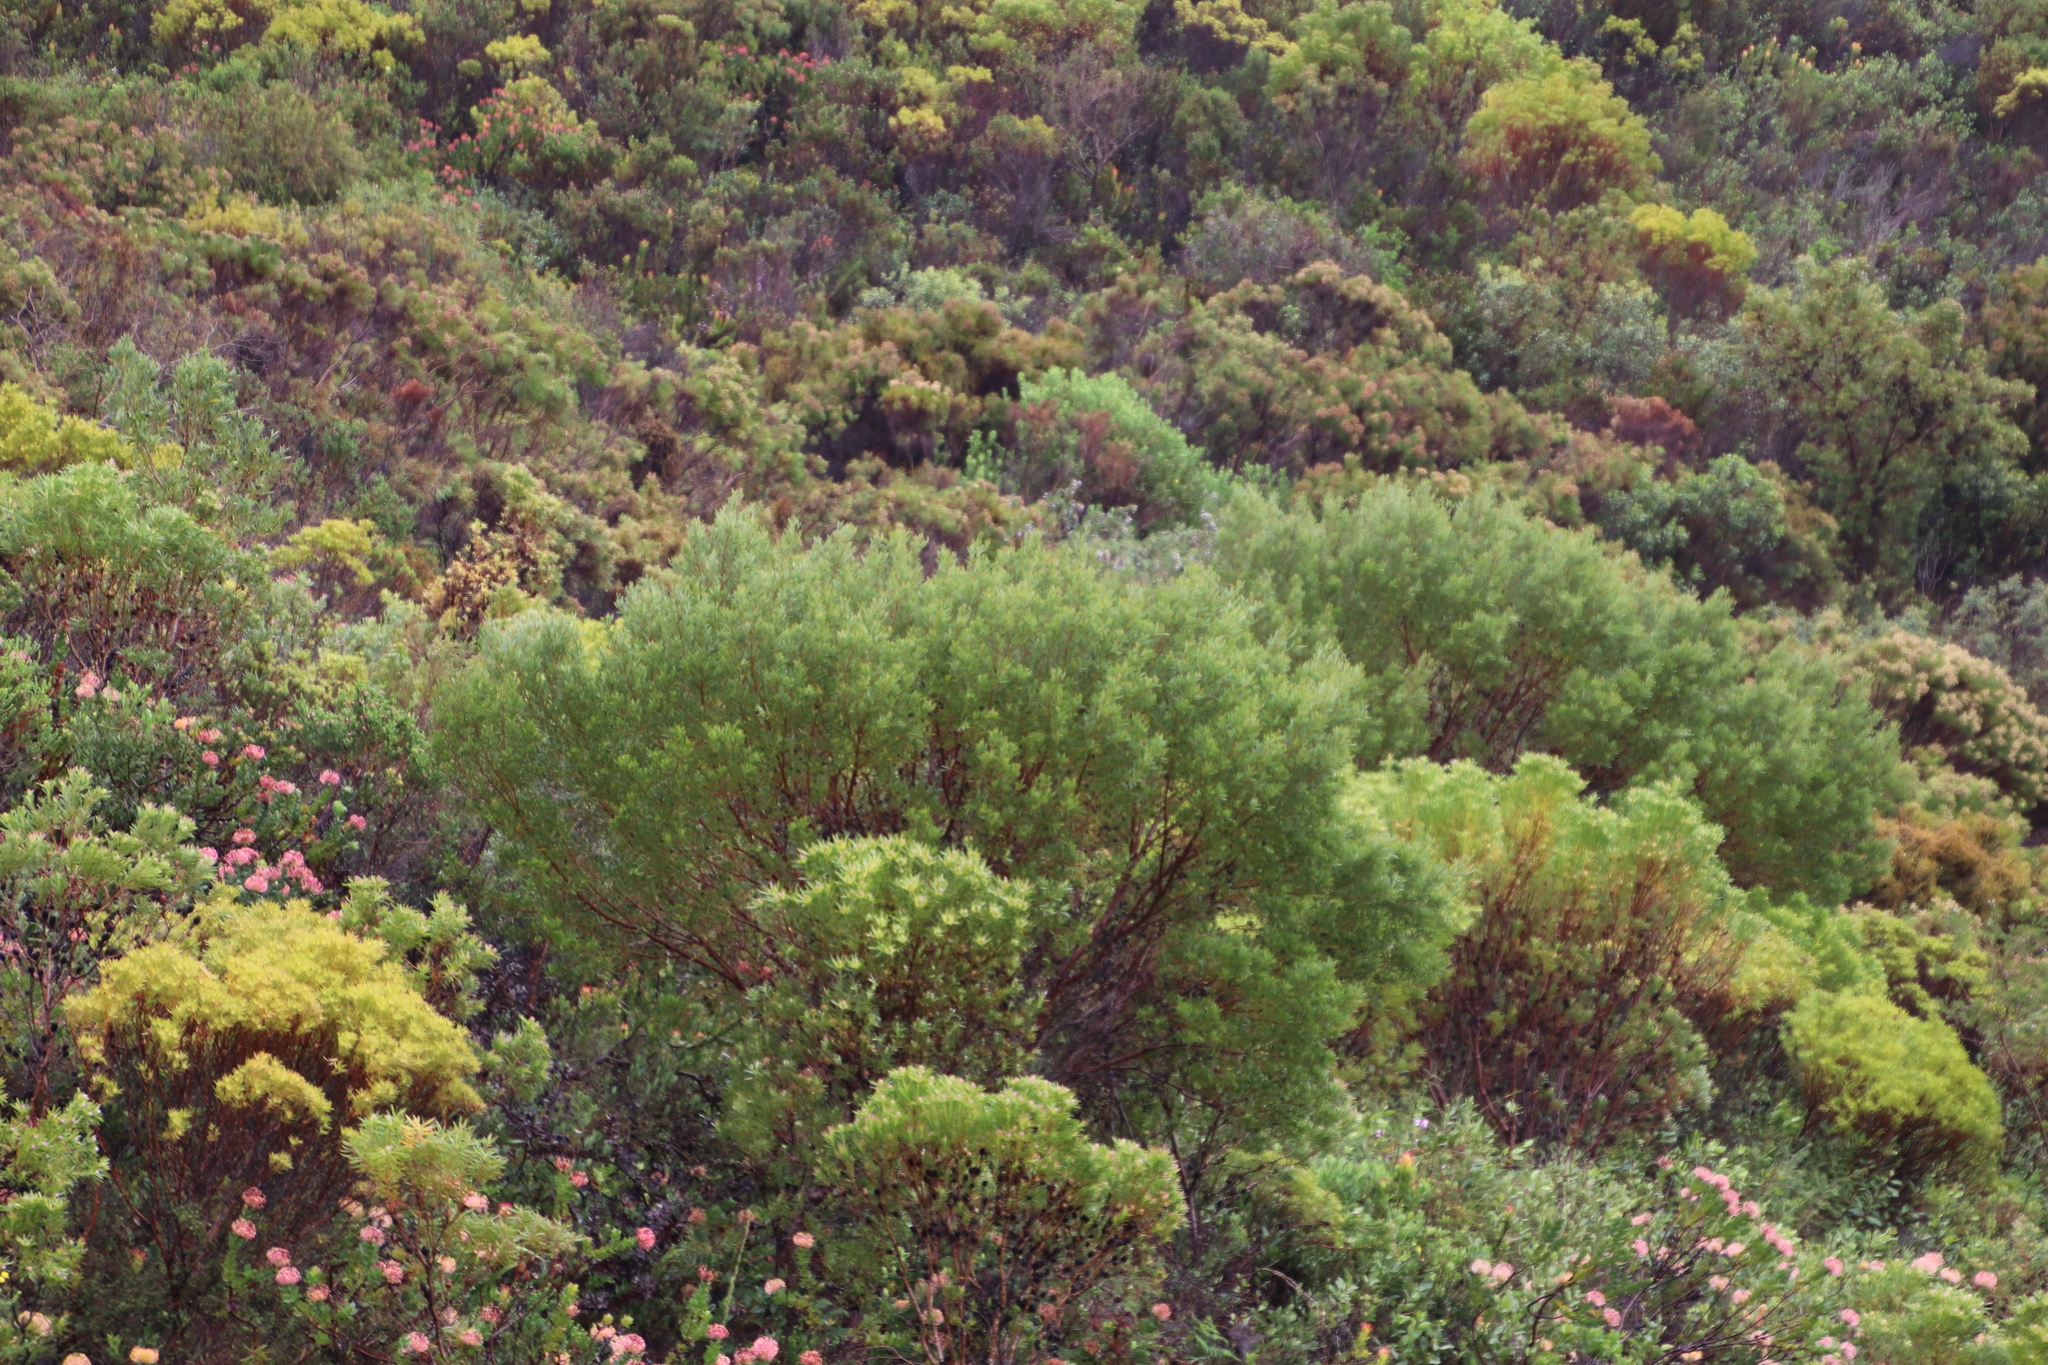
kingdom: Plantae
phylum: Tracheophyta
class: Magnoliopsida
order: Fabales
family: Fabaceae
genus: Acacia
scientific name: Acacia cyclops
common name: Coastal wattle
